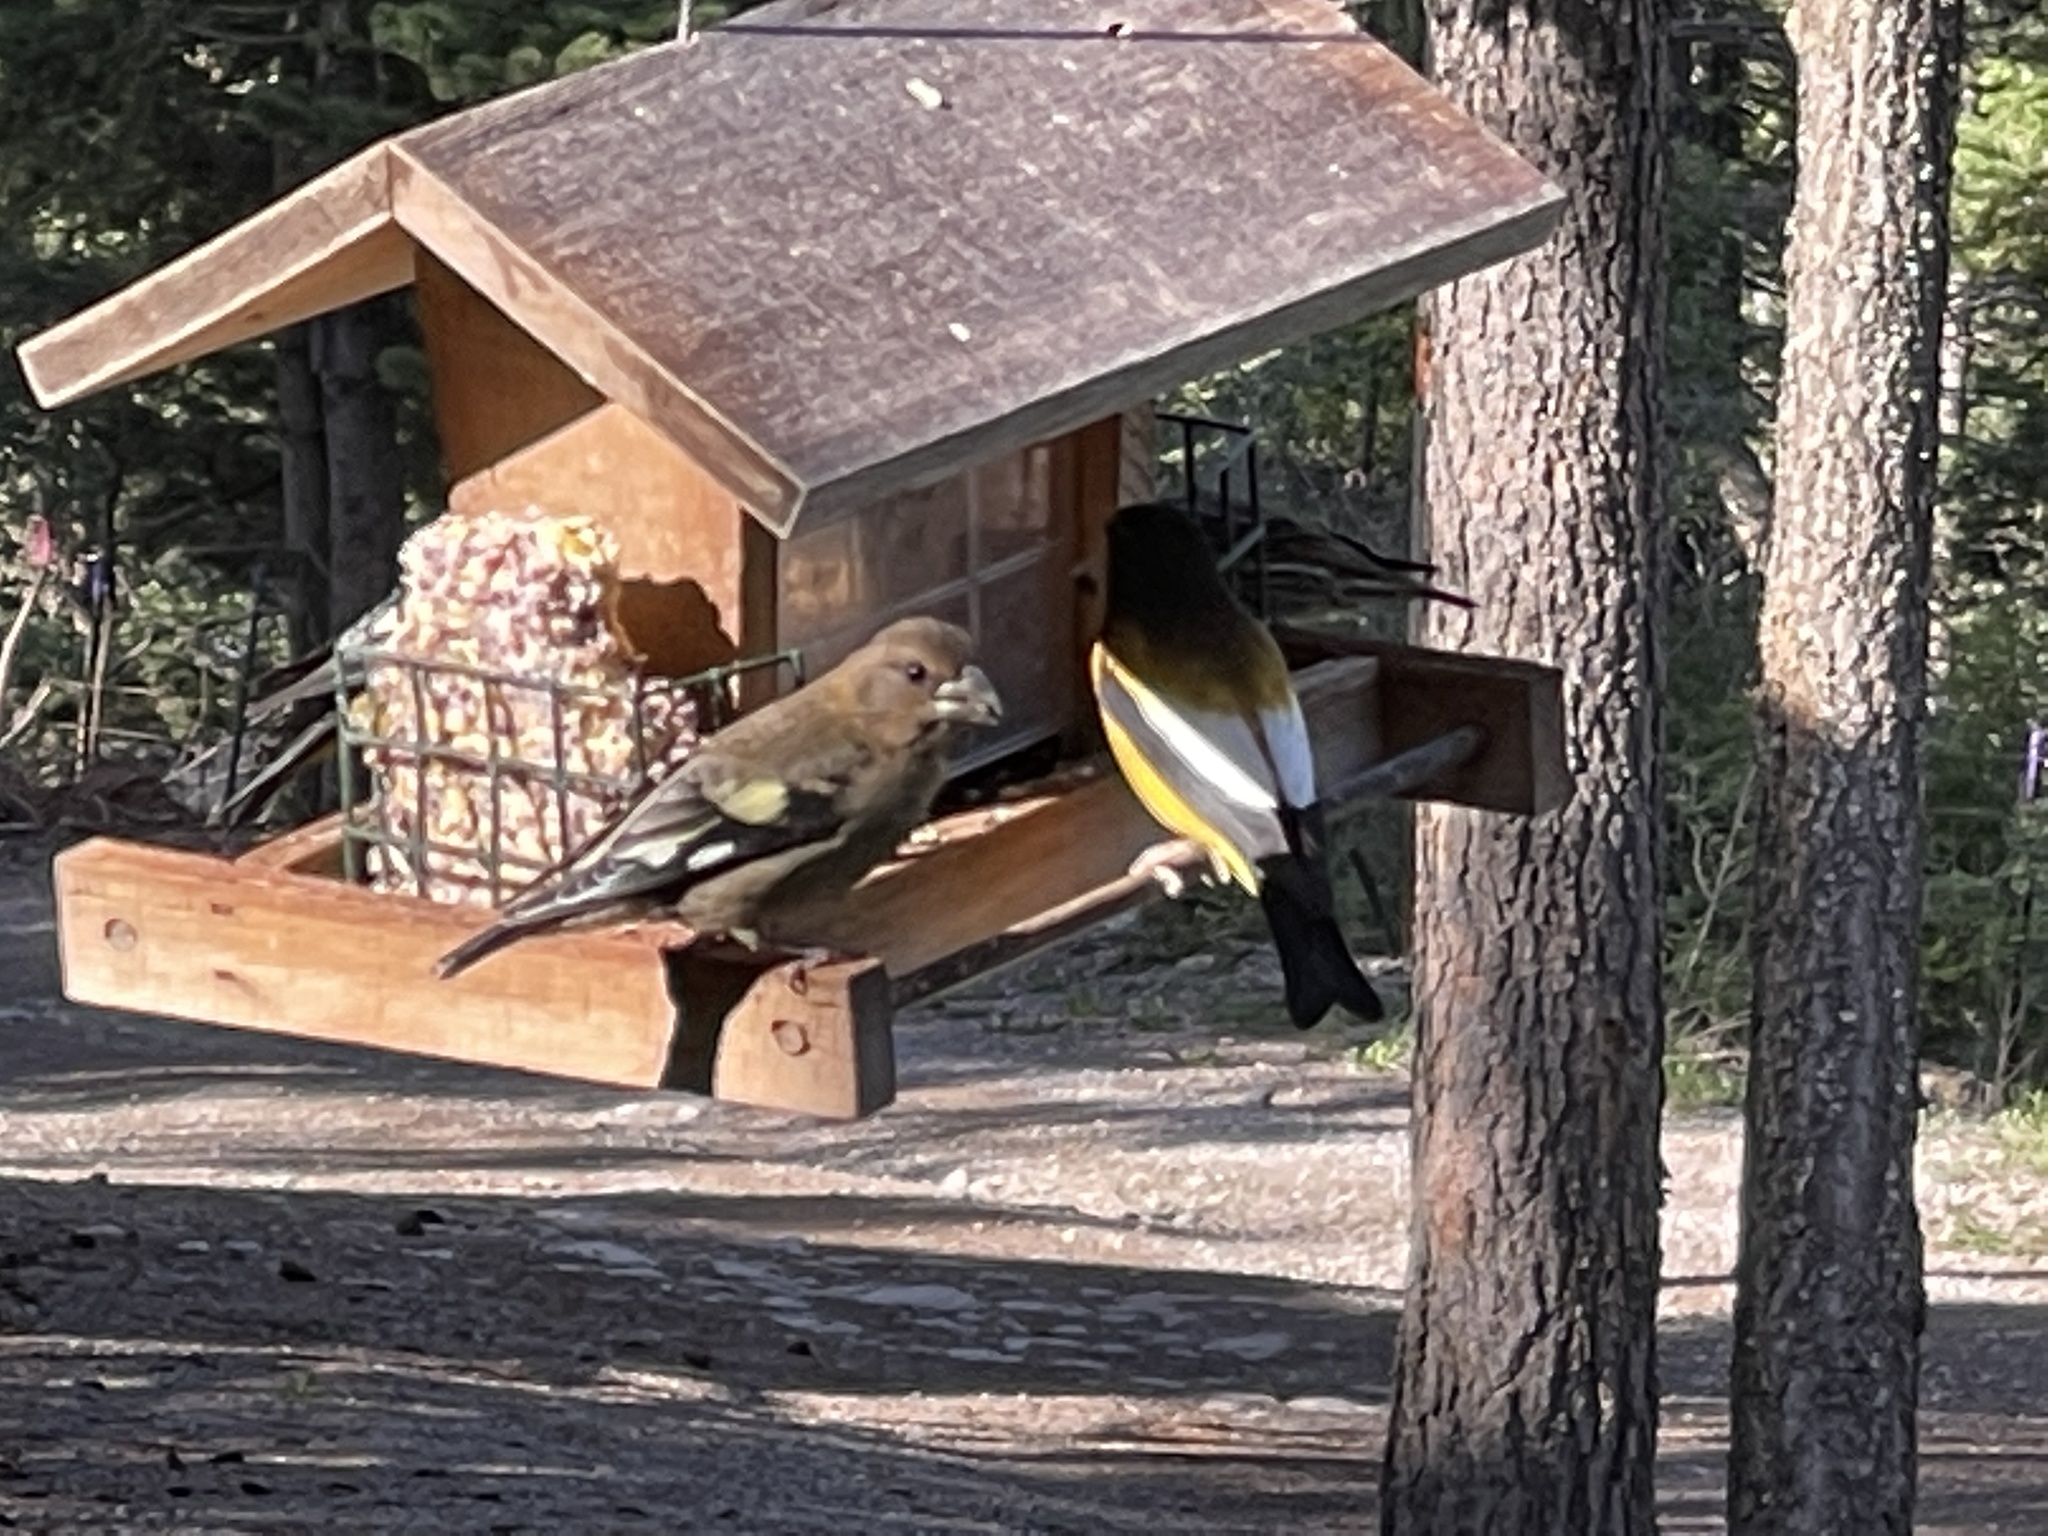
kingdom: Animalia
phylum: Chordata
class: Aves
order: Passeriformes
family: Fringillidae
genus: Hesperiphona
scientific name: Hesperiphona vespertina
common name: Evening grosbeak
